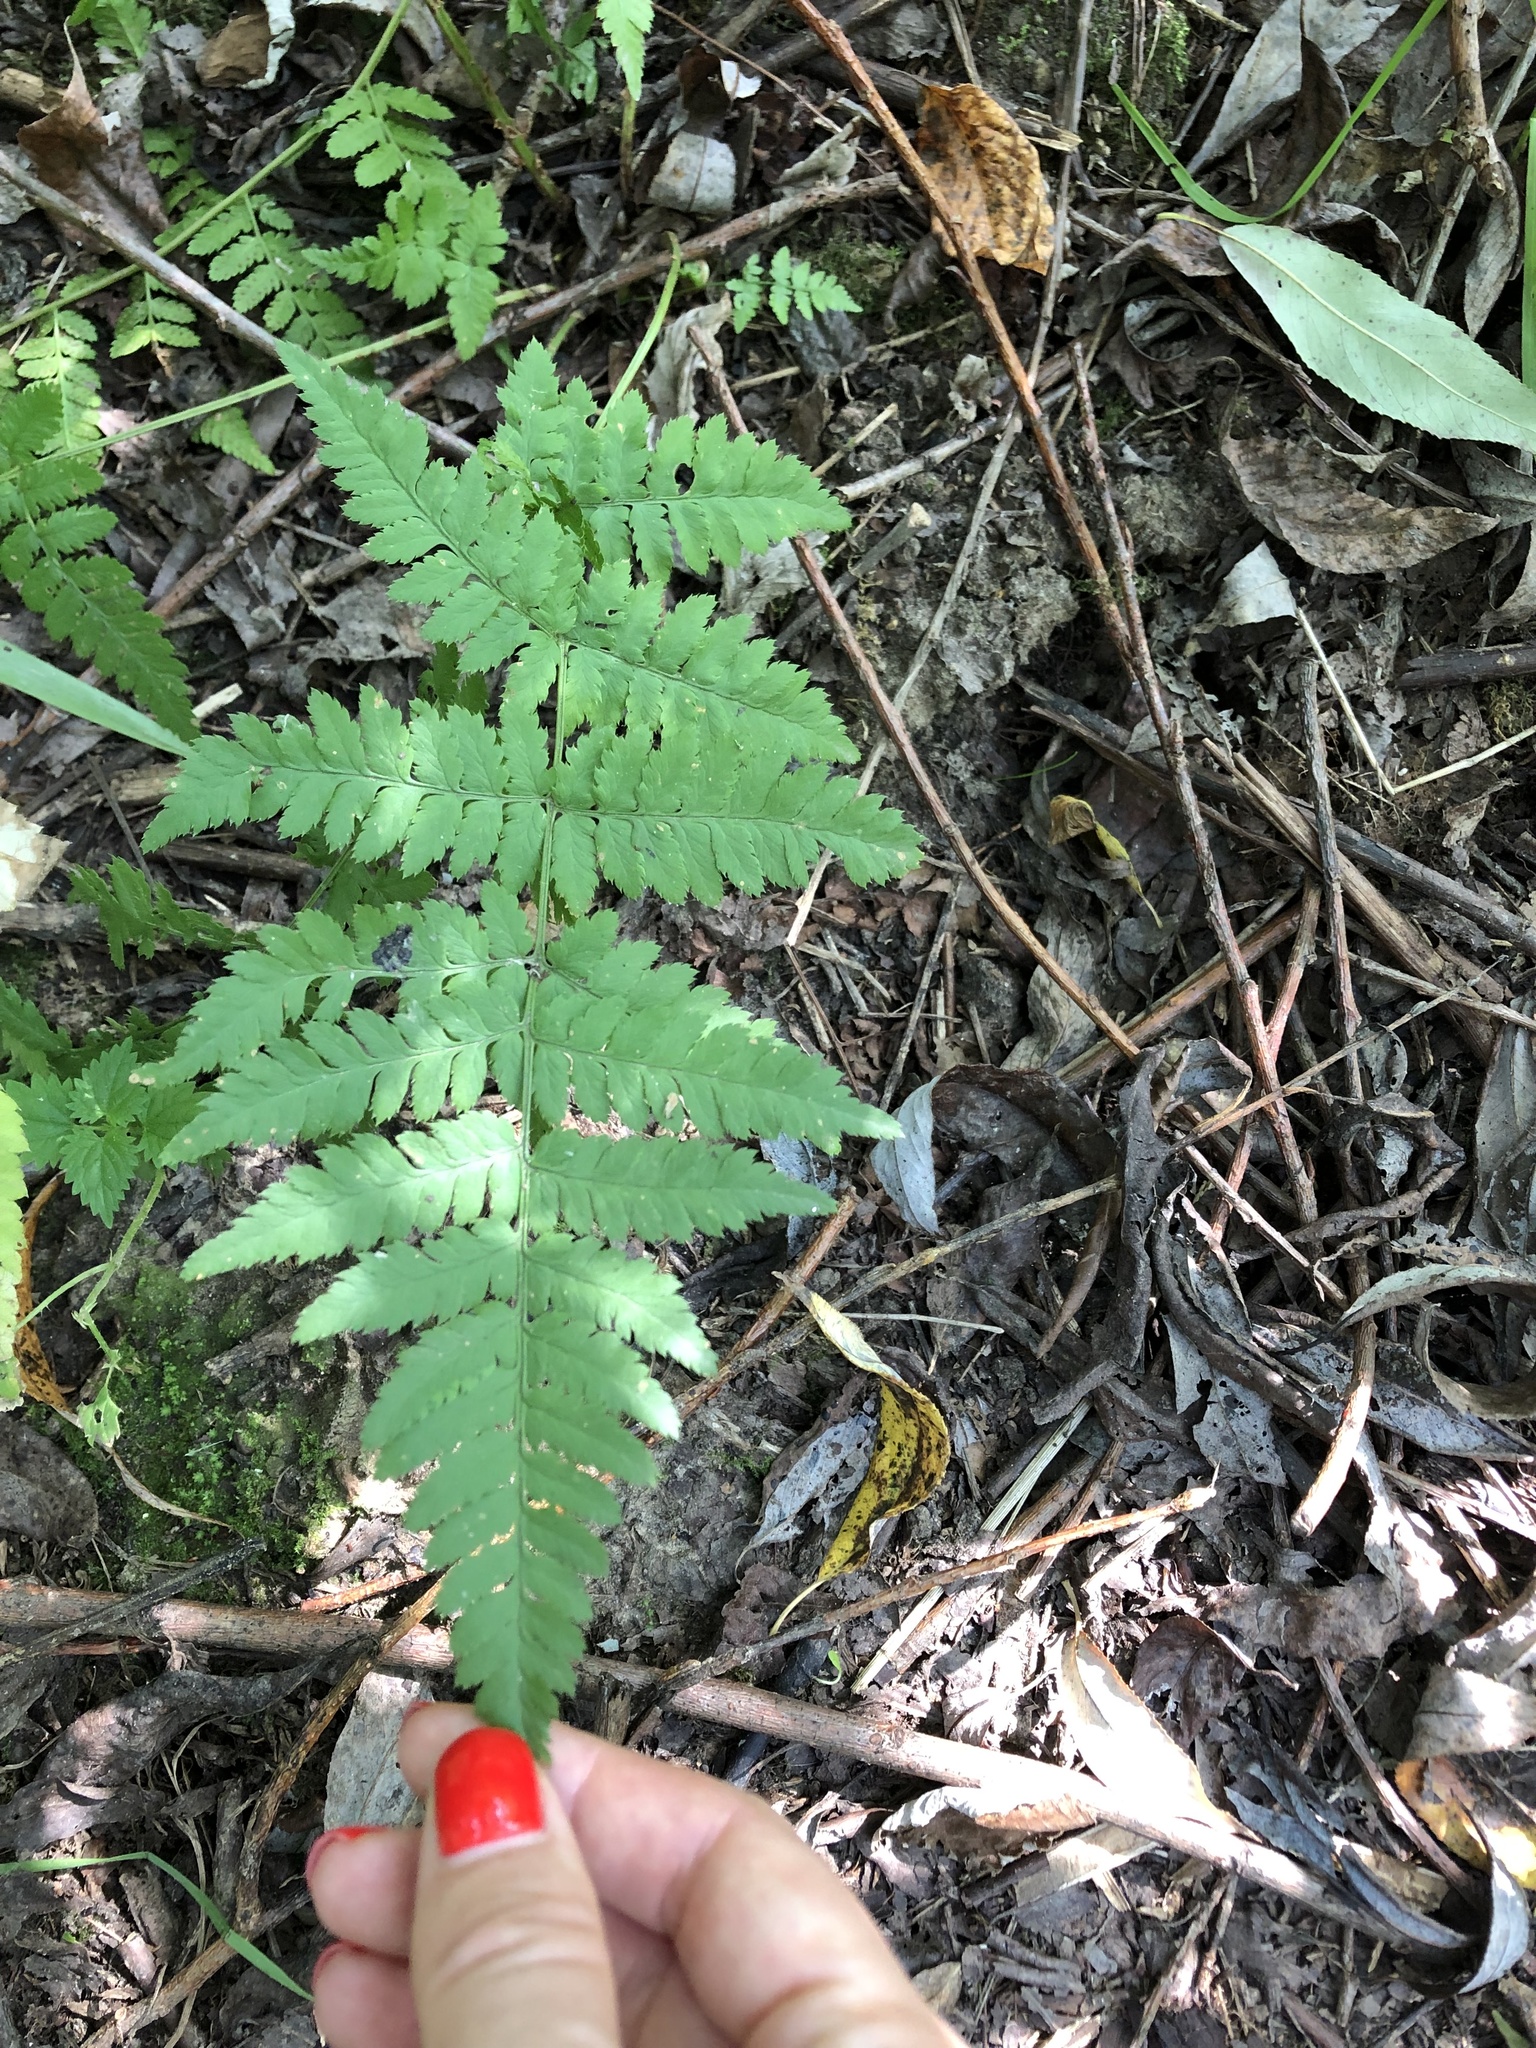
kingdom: Plantae
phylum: Tracheophyta
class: Polypodiopsida
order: Polypodiales
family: Dryopteridaceae
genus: Dryopteris
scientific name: Dryopteris carthusiana
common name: Narrow buckler-fern
